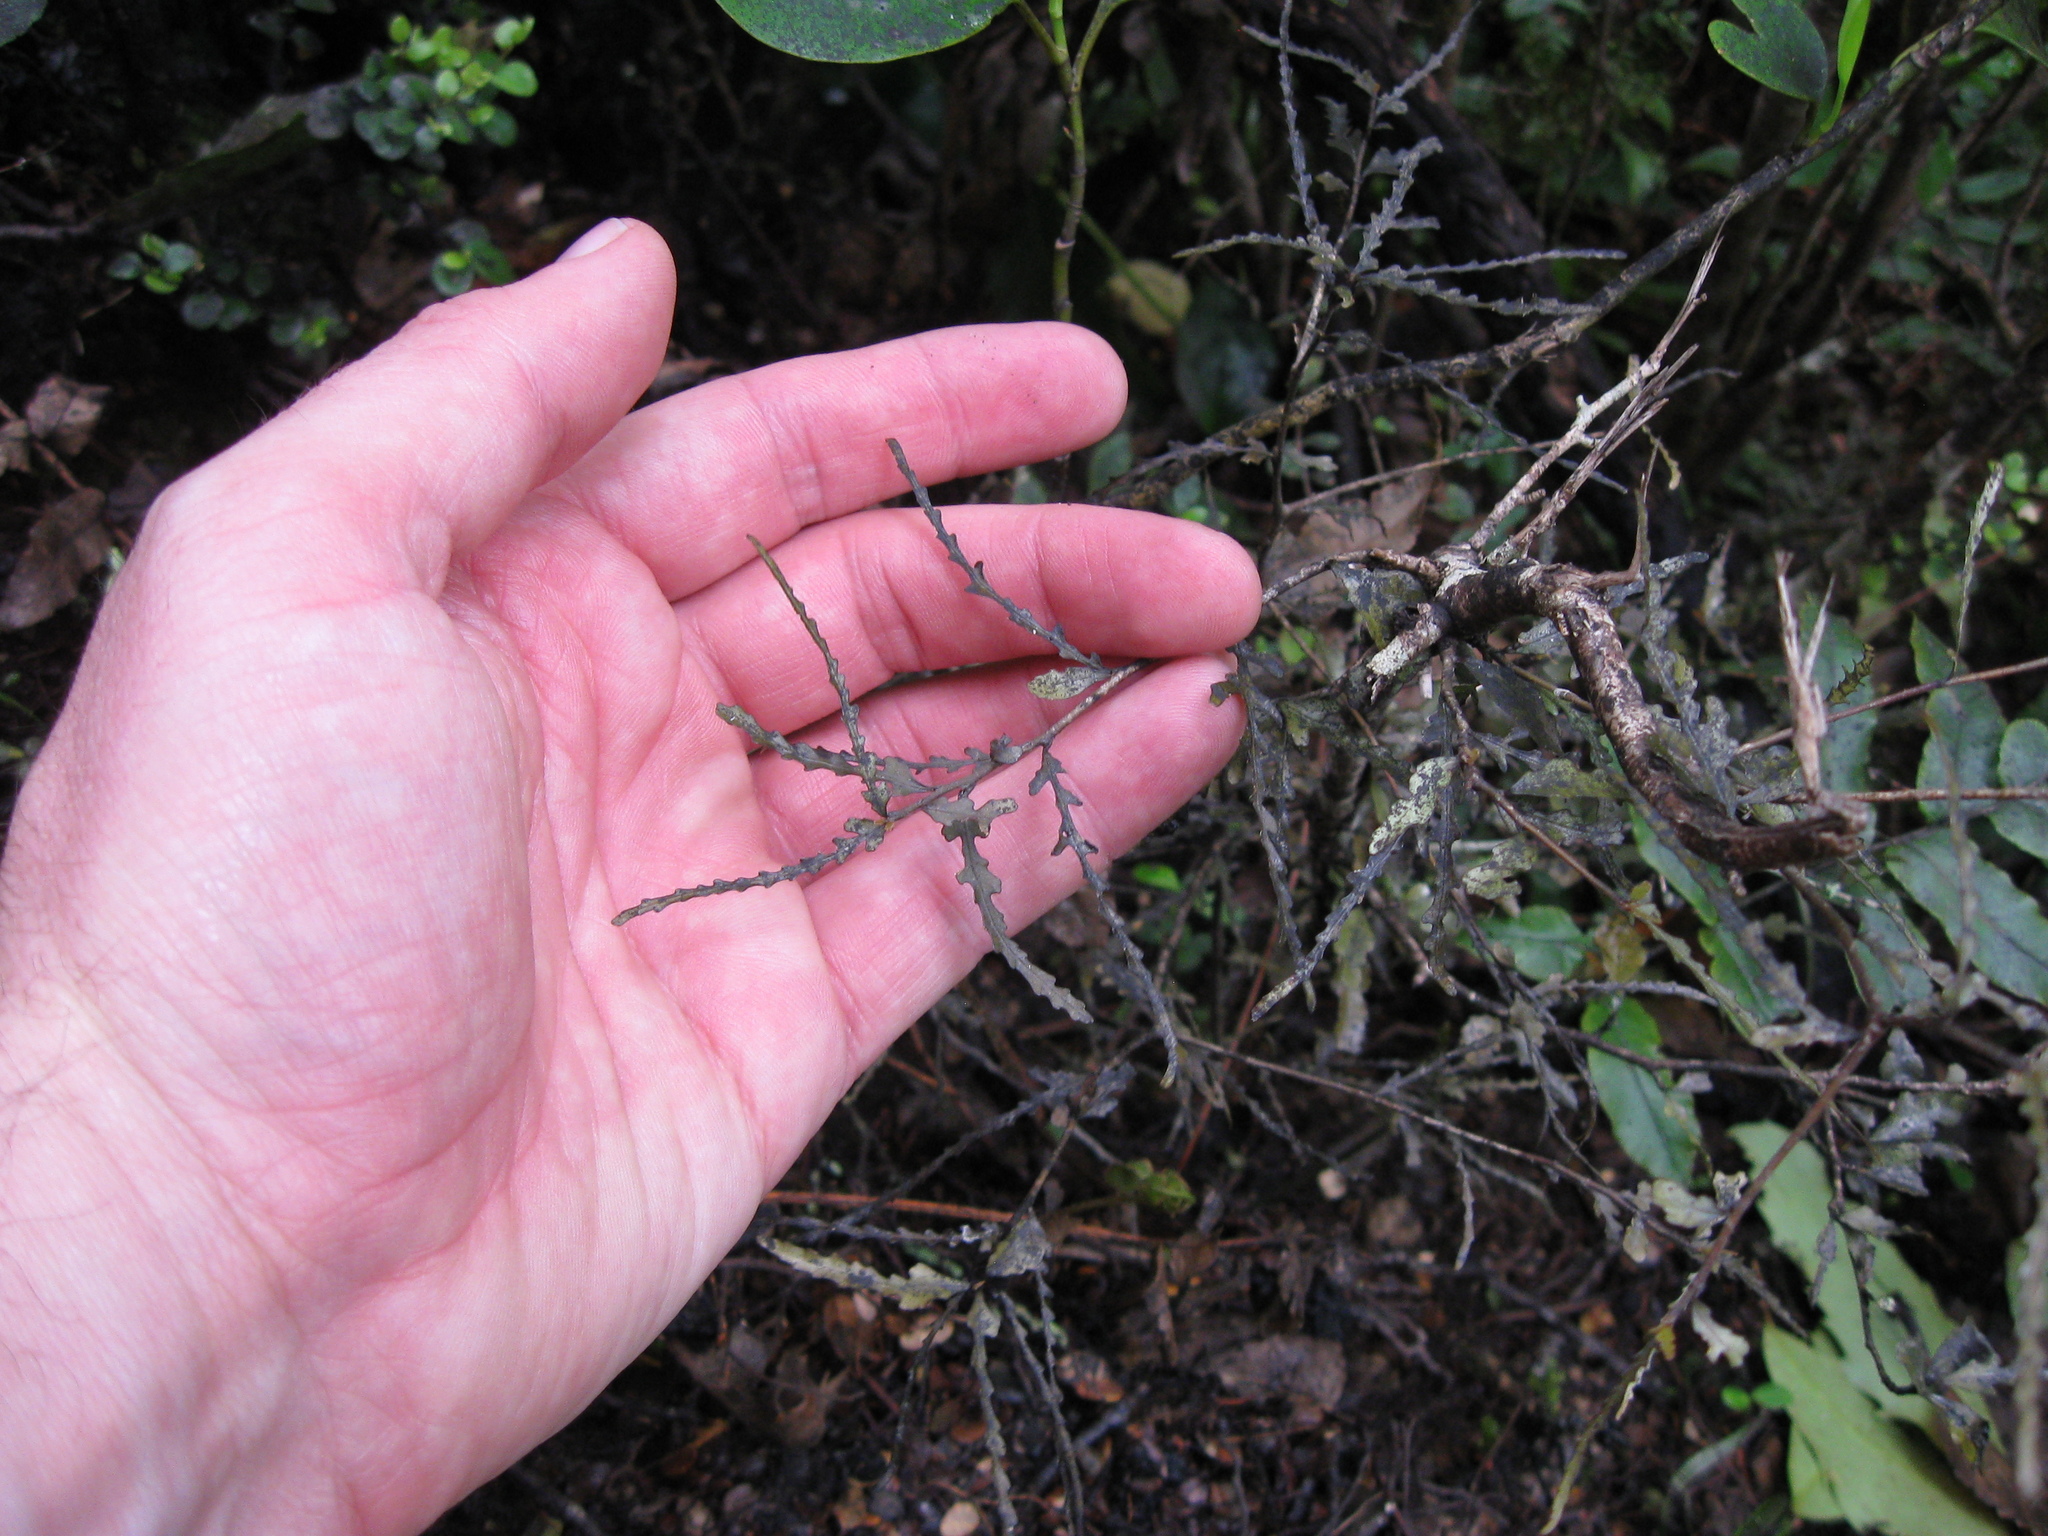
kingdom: Plantae
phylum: Tracheophyta
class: Magnoliopsida
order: Oxalidales
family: Elaeocarpaceae
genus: Elaeocarpus
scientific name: Elaeocarpus hookerianus
